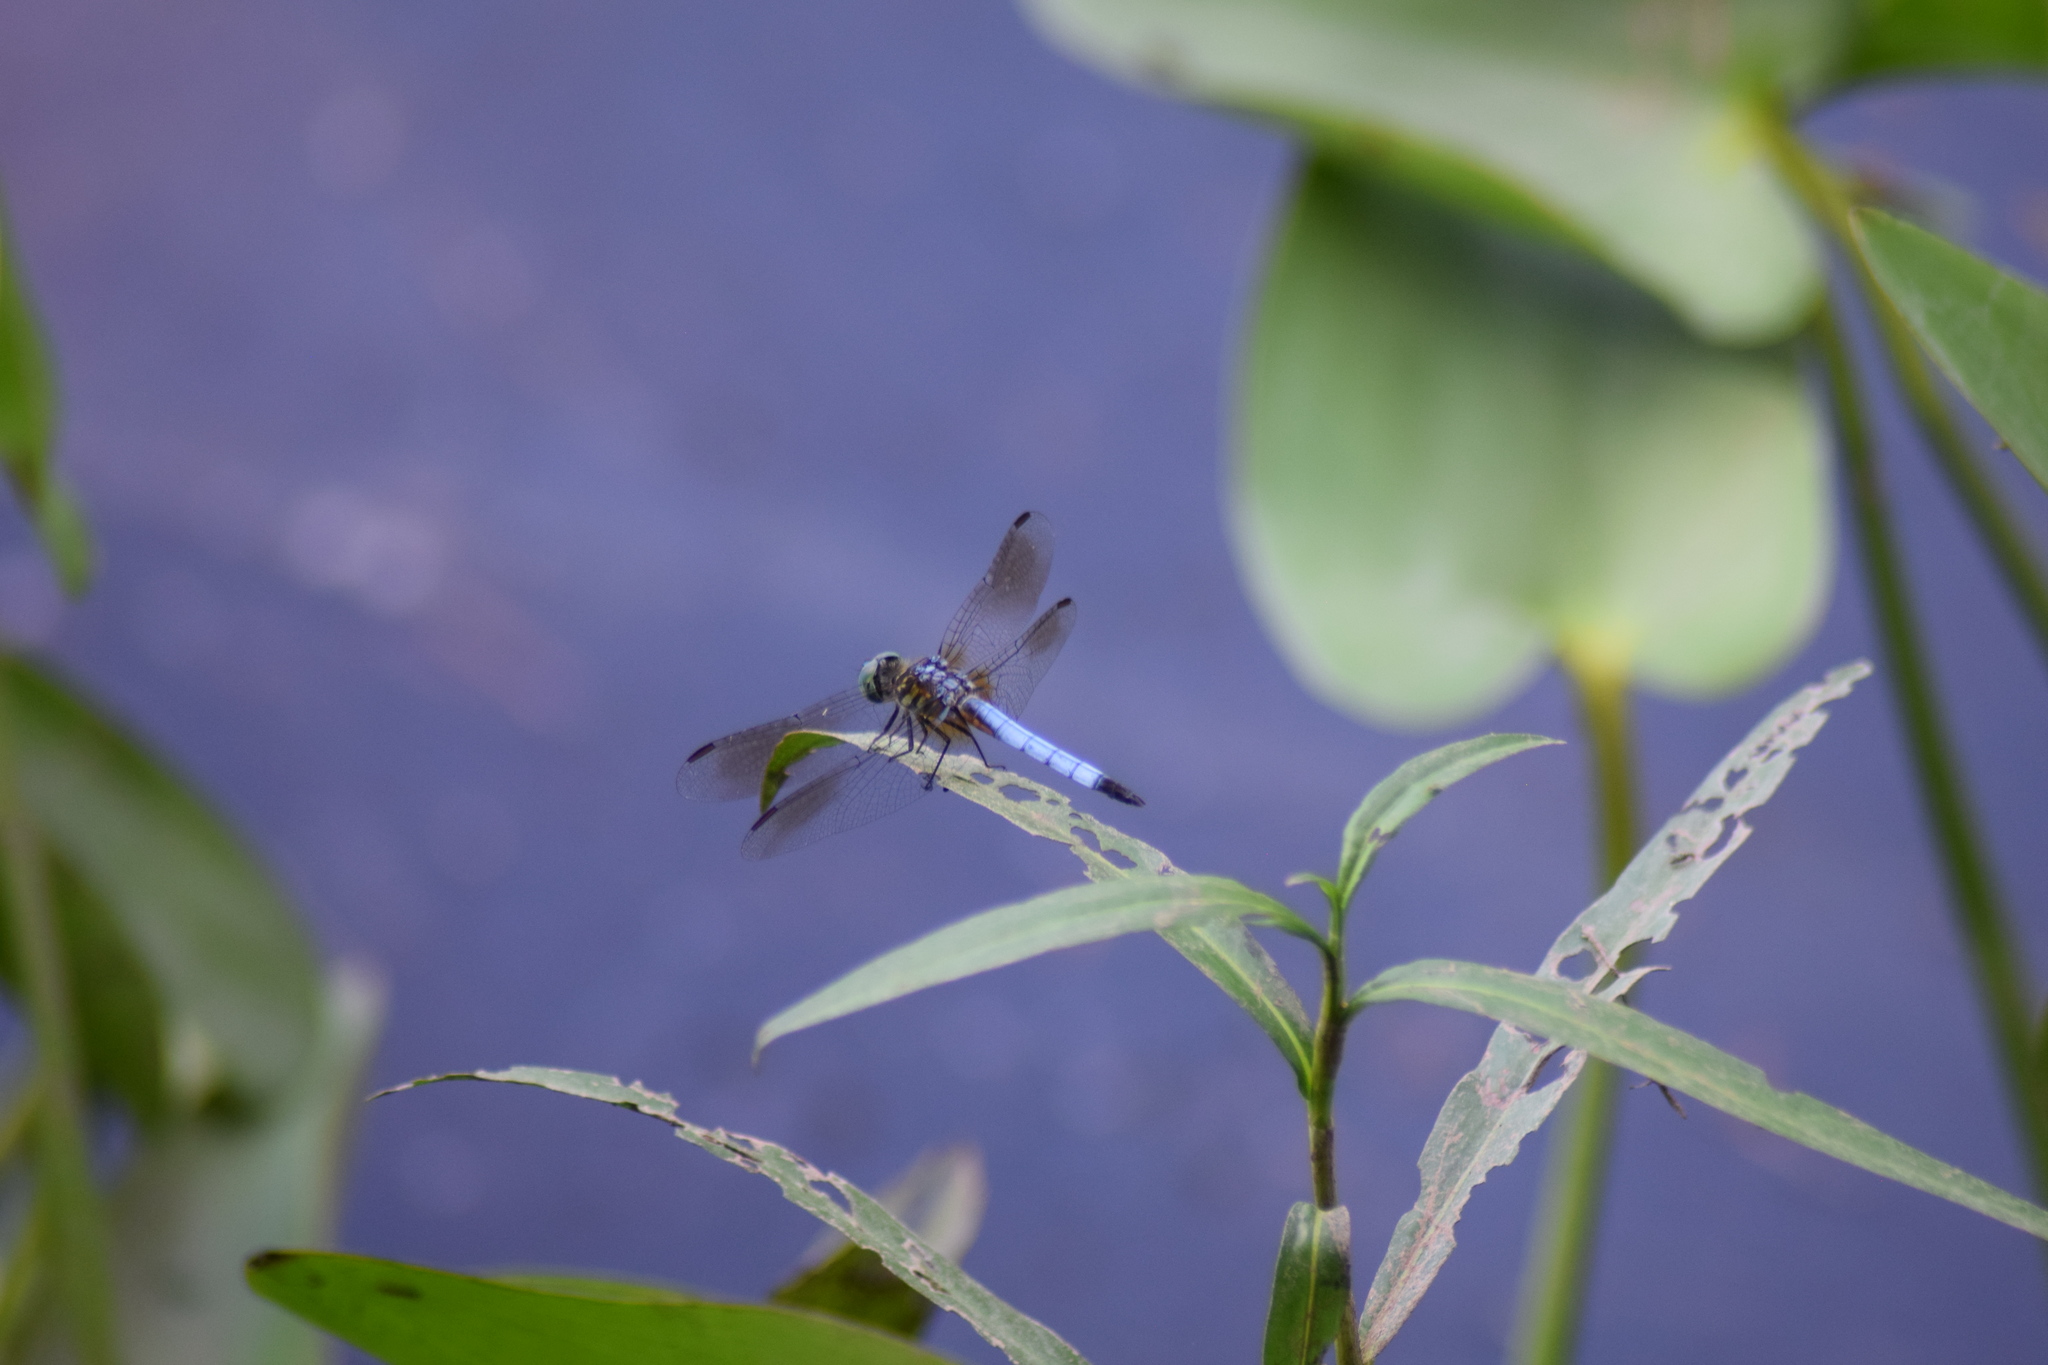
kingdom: Animalia
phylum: Arthropoda
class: Insecta
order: Odonata
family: Libellulidae
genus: Pachydiplax
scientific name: Pachydiplax longipennis
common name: Blue dasher
